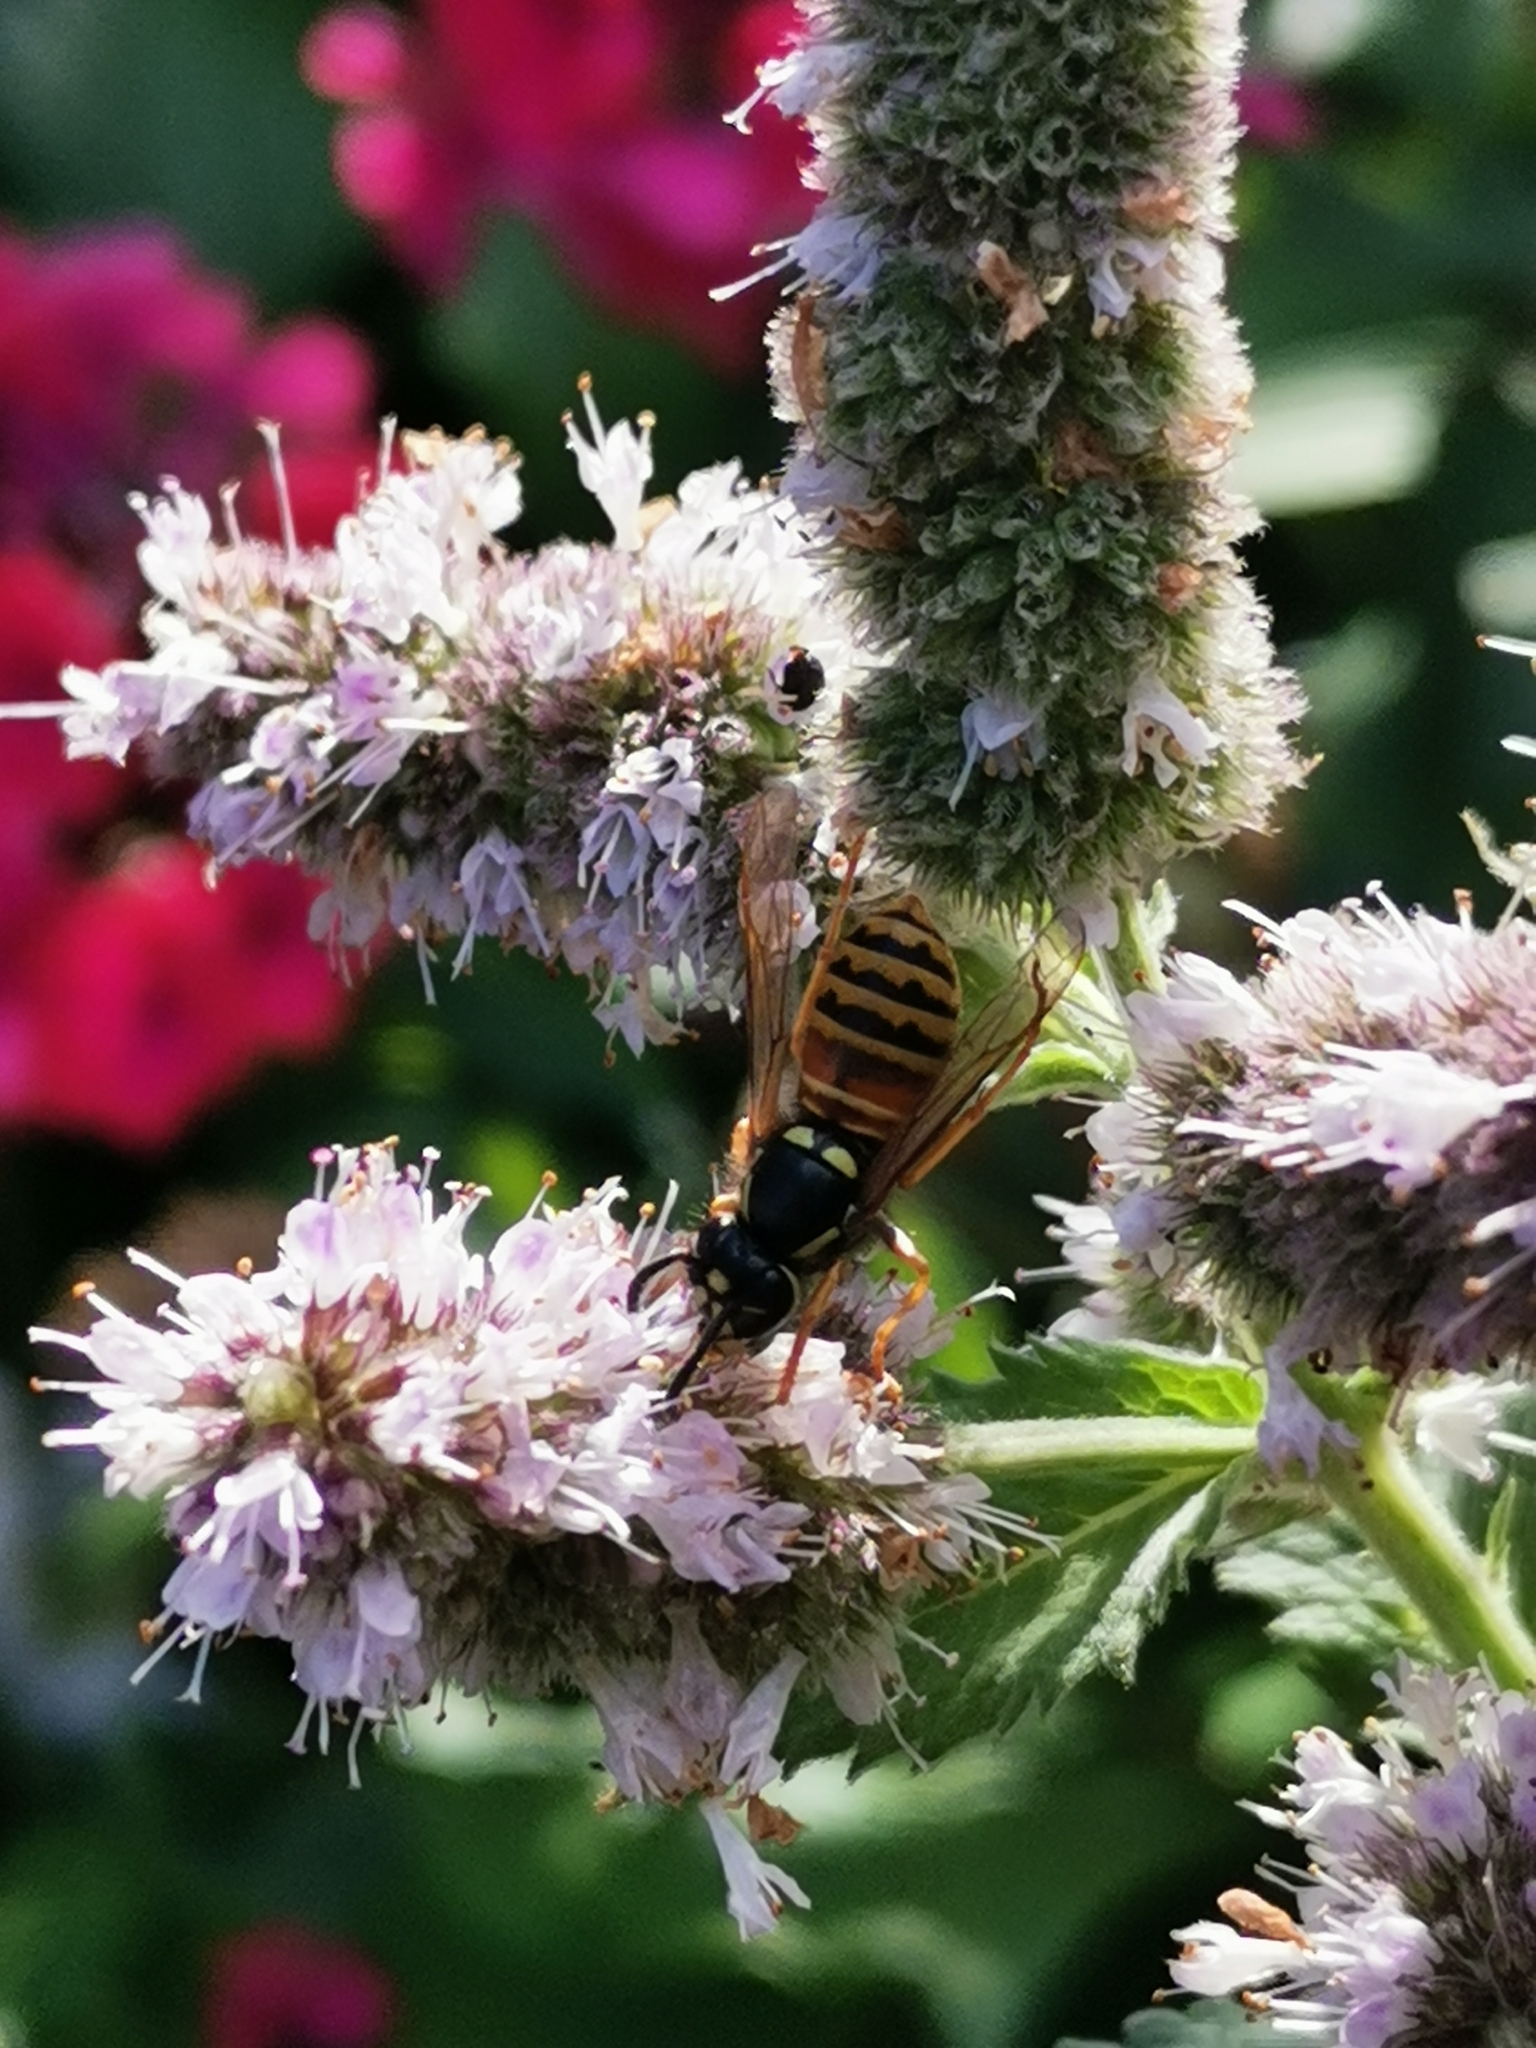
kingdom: Animalia
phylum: Arthropoda
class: Insecta
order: Hymenoptera
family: Vespidae
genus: Vespula
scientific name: Vespula rufa
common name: Red wasp
